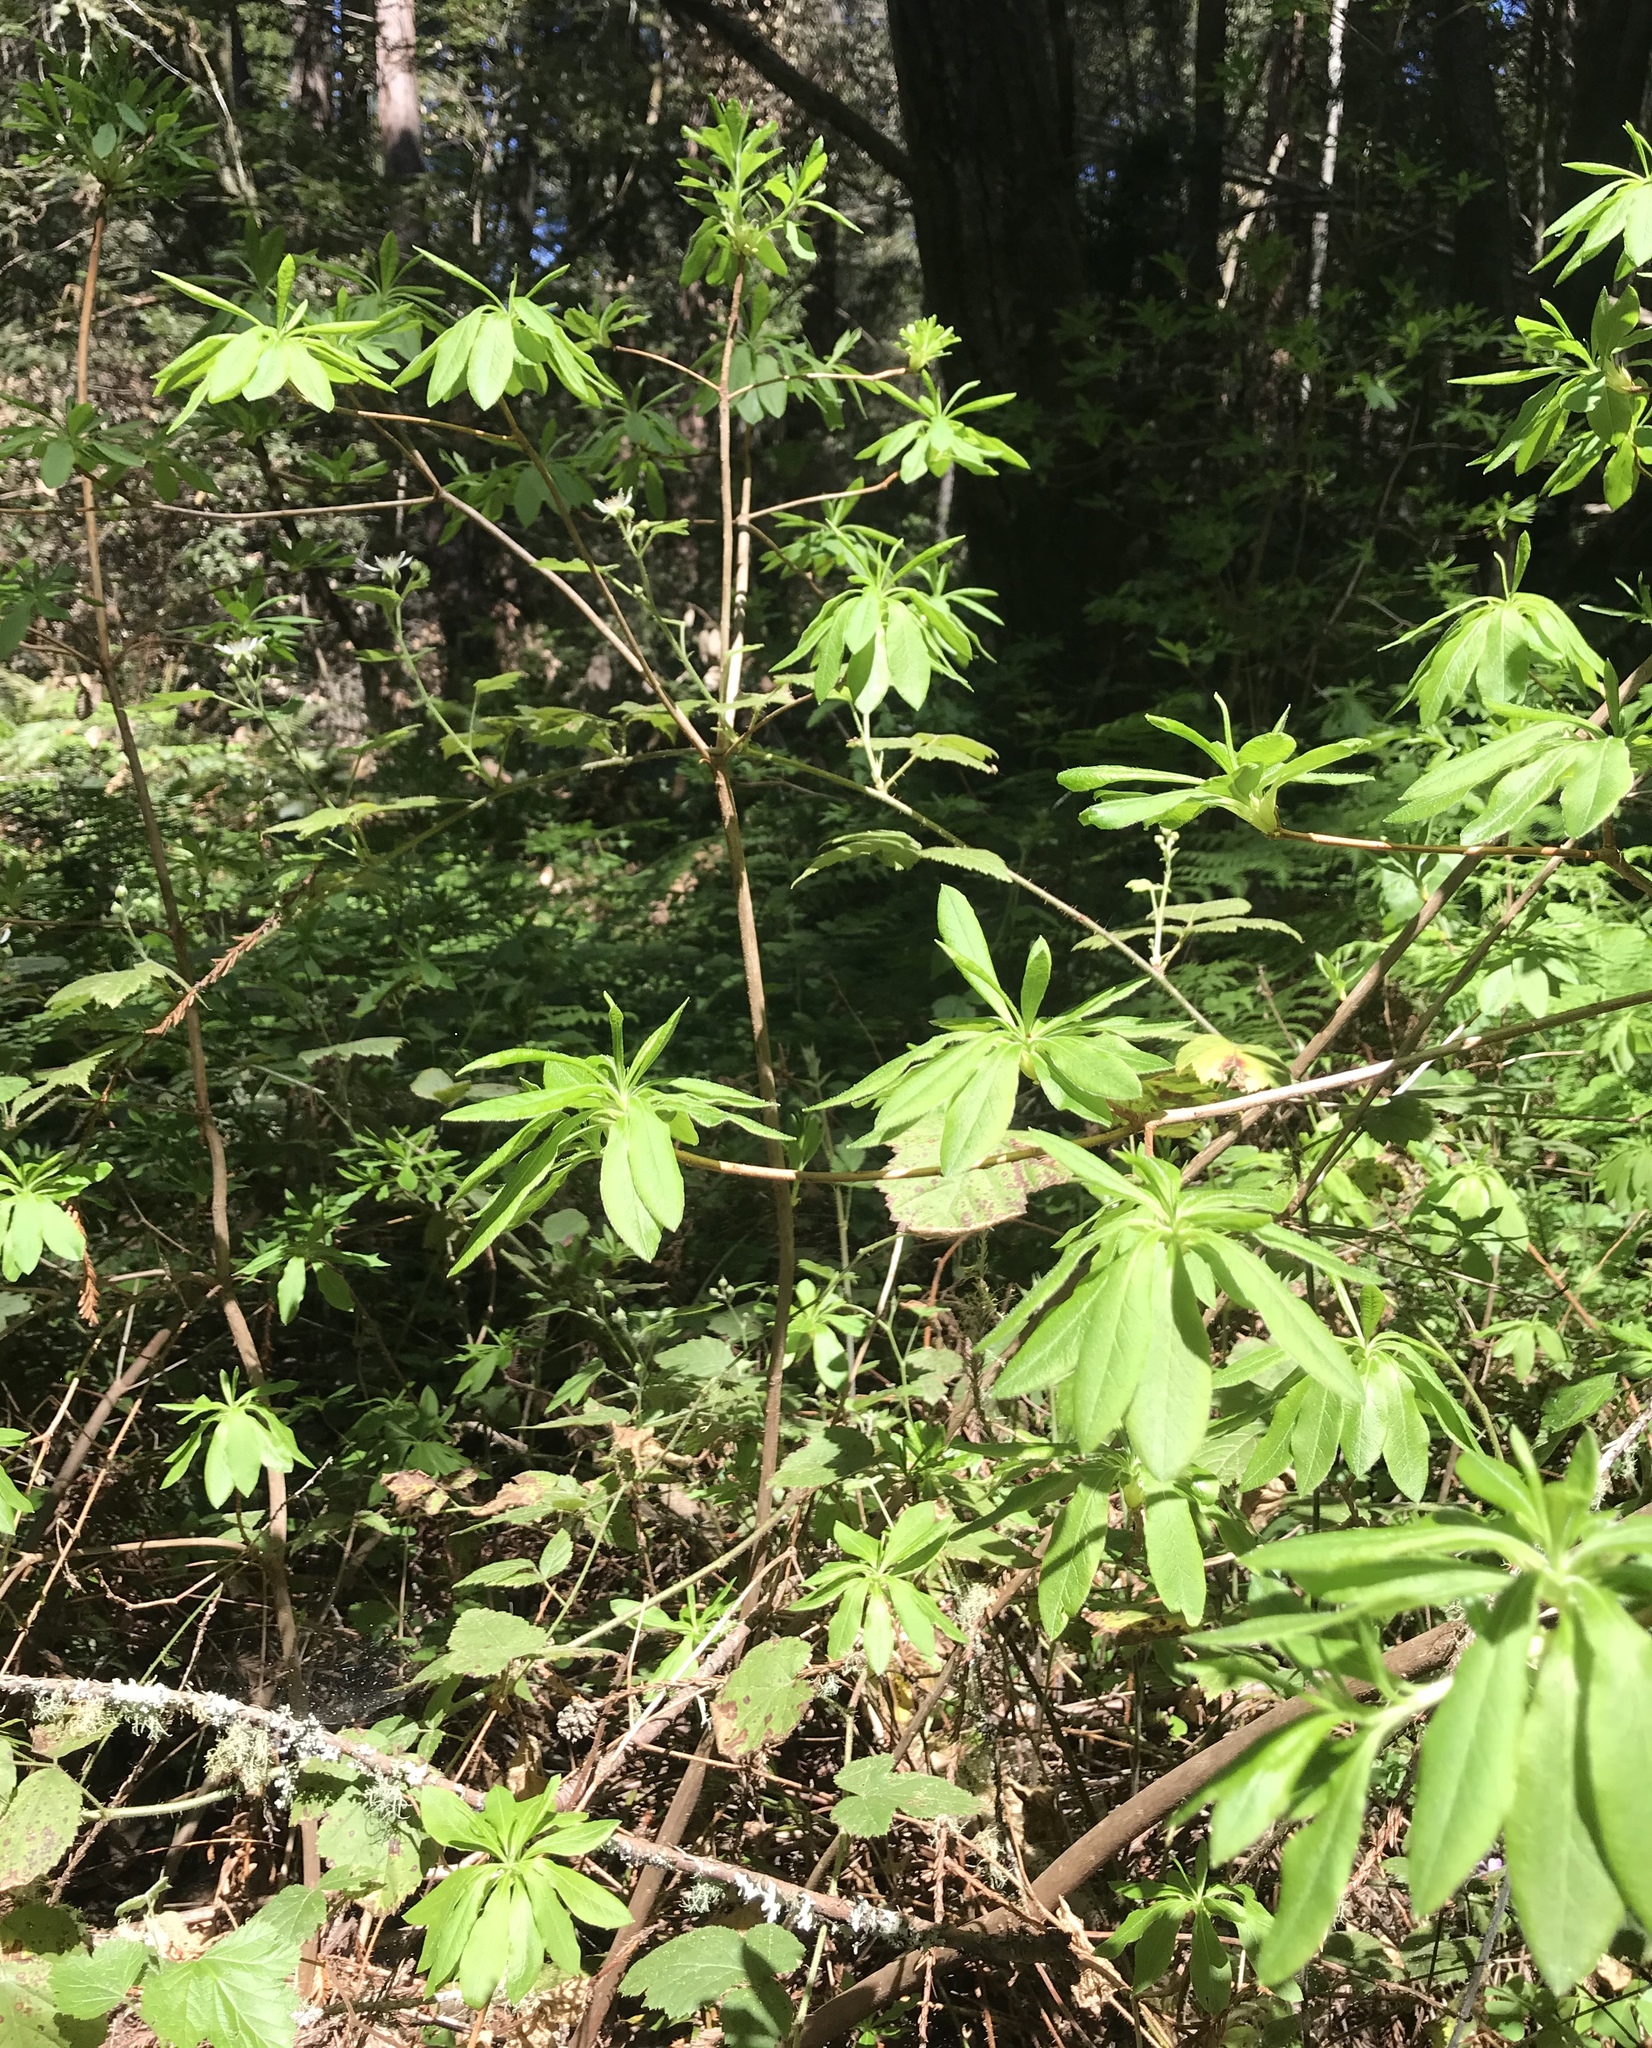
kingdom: Plantae
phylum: Tracheophyta
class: Magnoliopsida
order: Ericales
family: Ericaceae
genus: Rhododendron
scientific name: Rhododendron occidentale
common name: Western azalea
